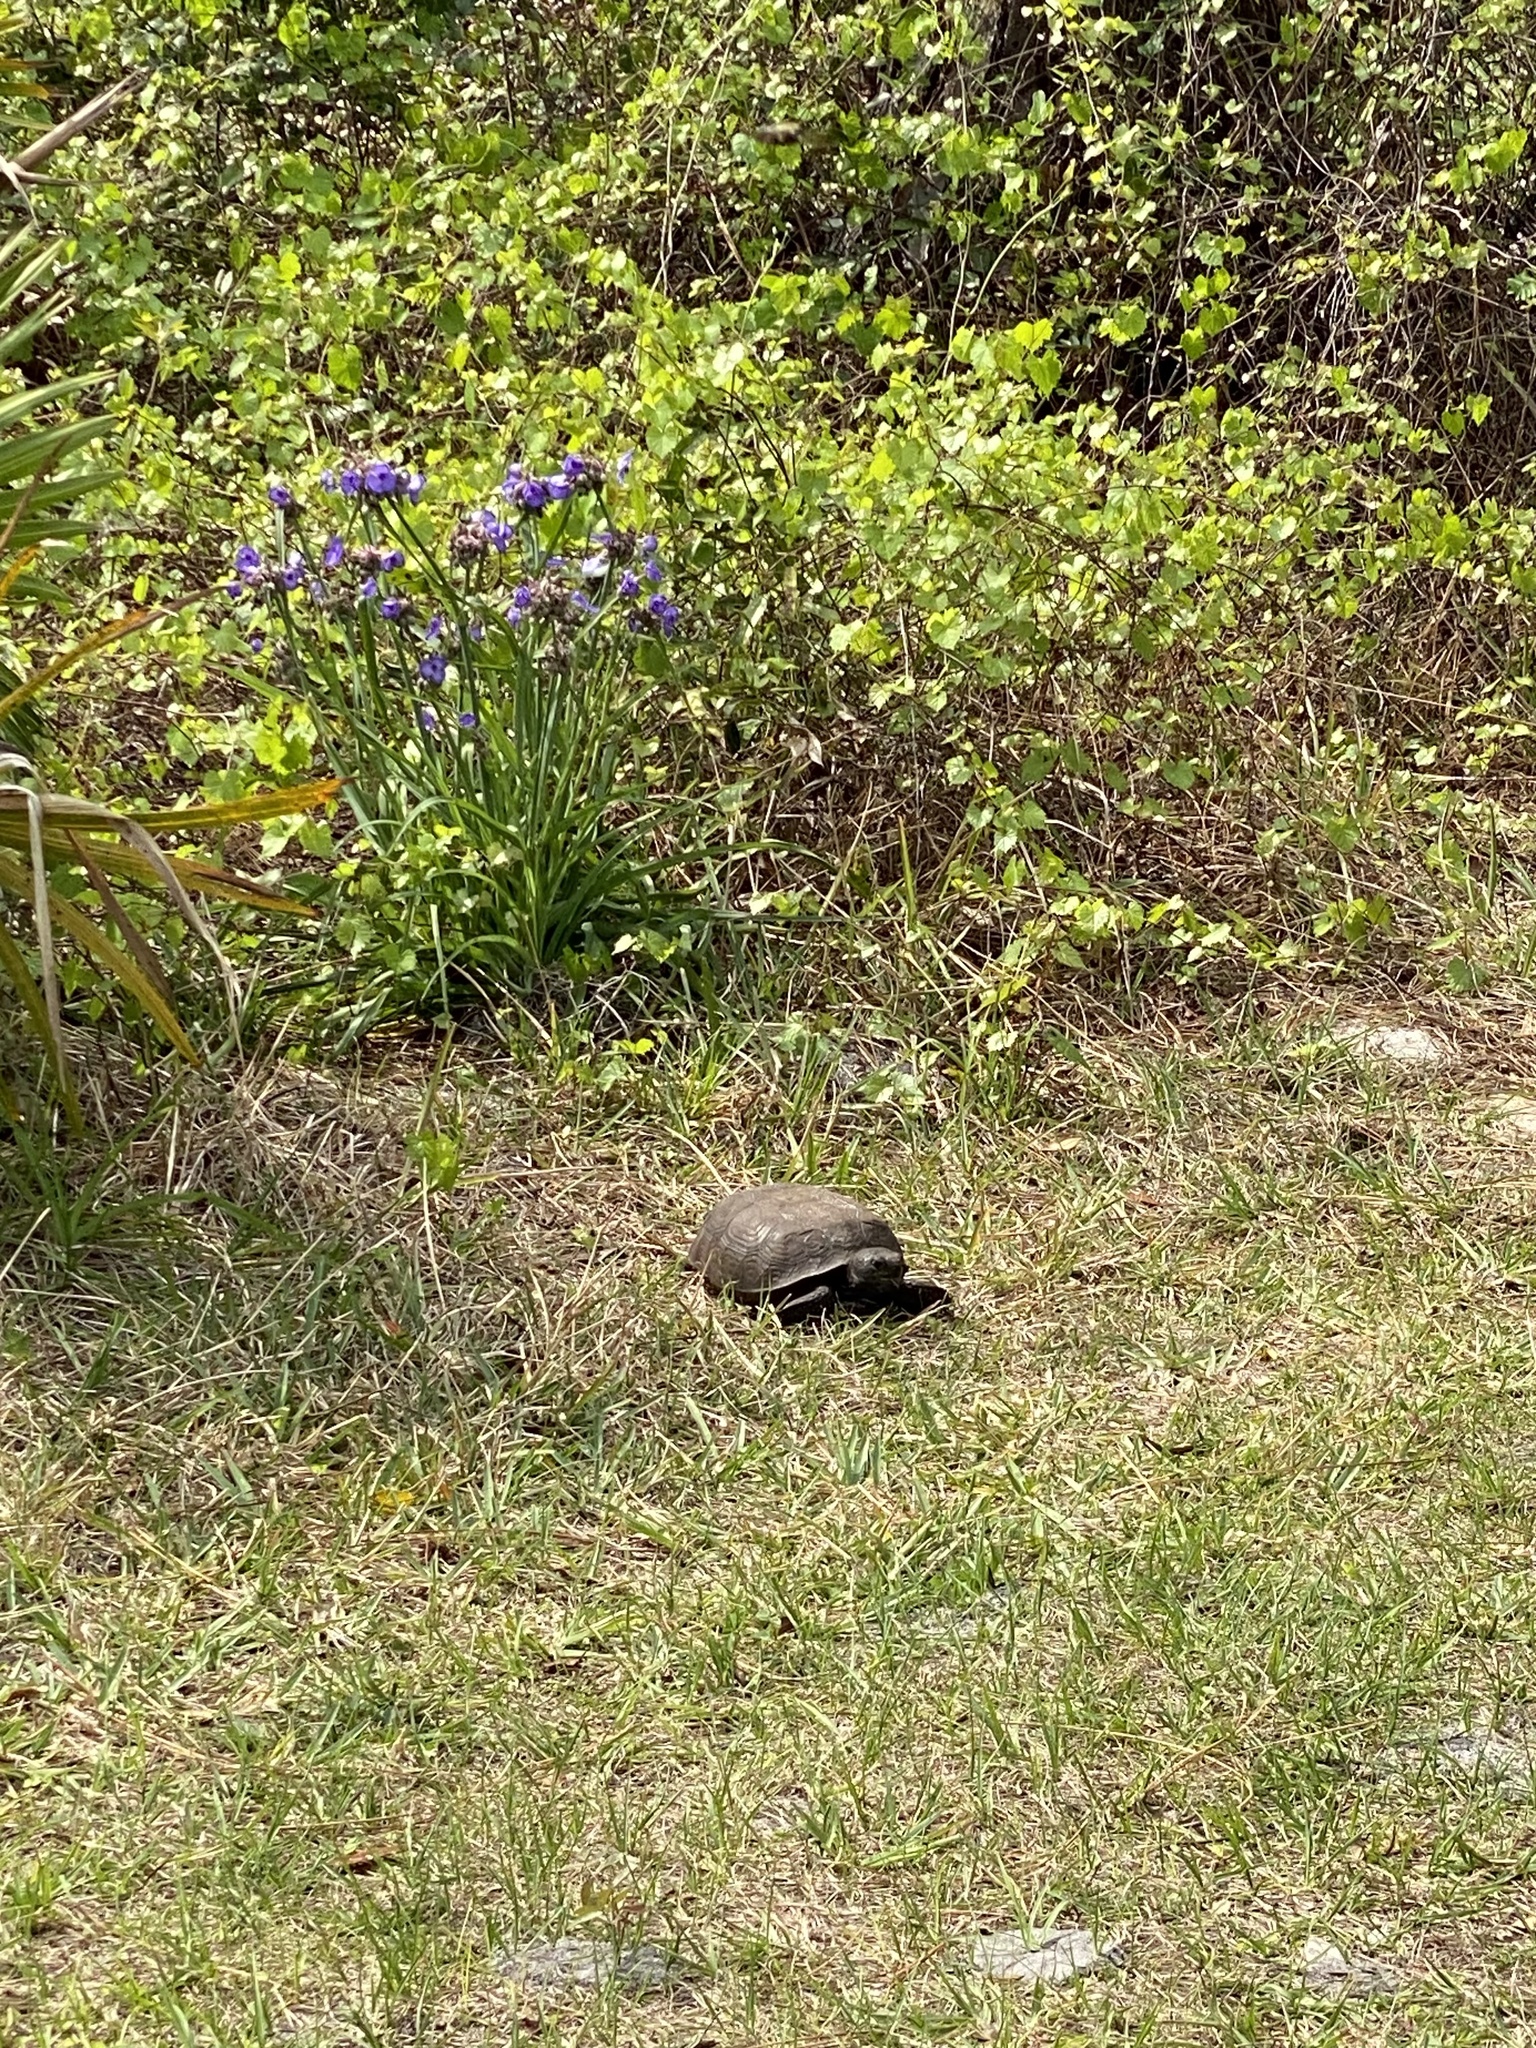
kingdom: Animalia
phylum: Chordata
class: Testudines
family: Testudinidae
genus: Gopherus
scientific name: Gopherus polyphemus
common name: Florida gopher tortoise
